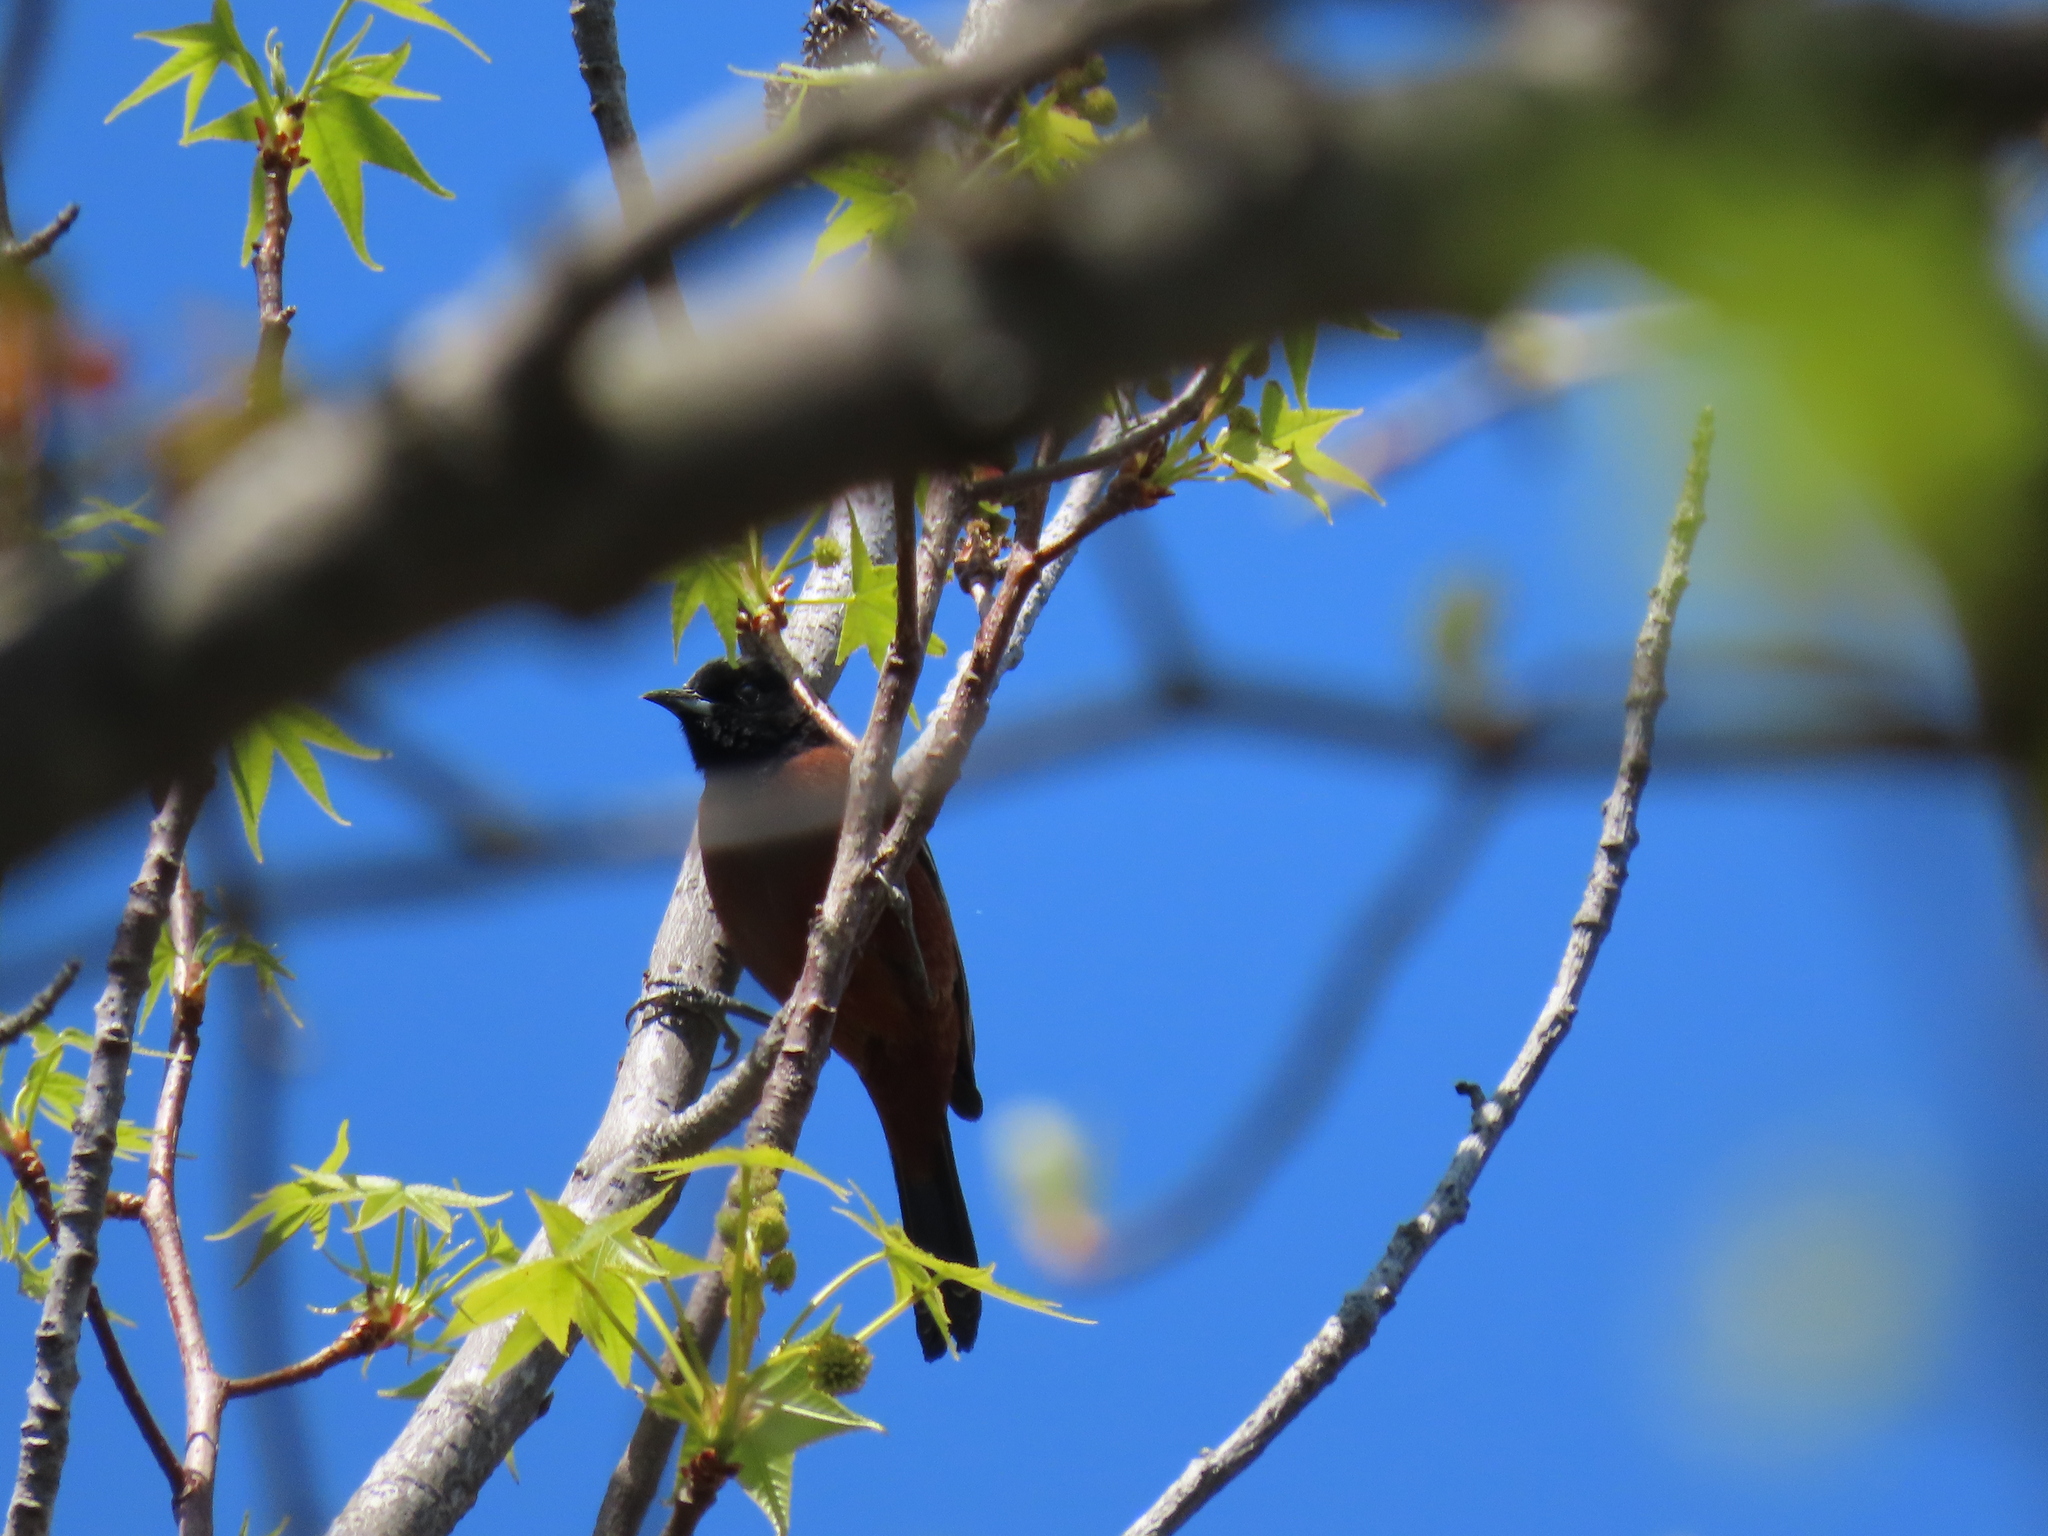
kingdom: Animalia
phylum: Chordata
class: Aves
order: Passeriformes
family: Icteridae
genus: Icterus
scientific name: Icterus spurius
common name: Orchard oriole
